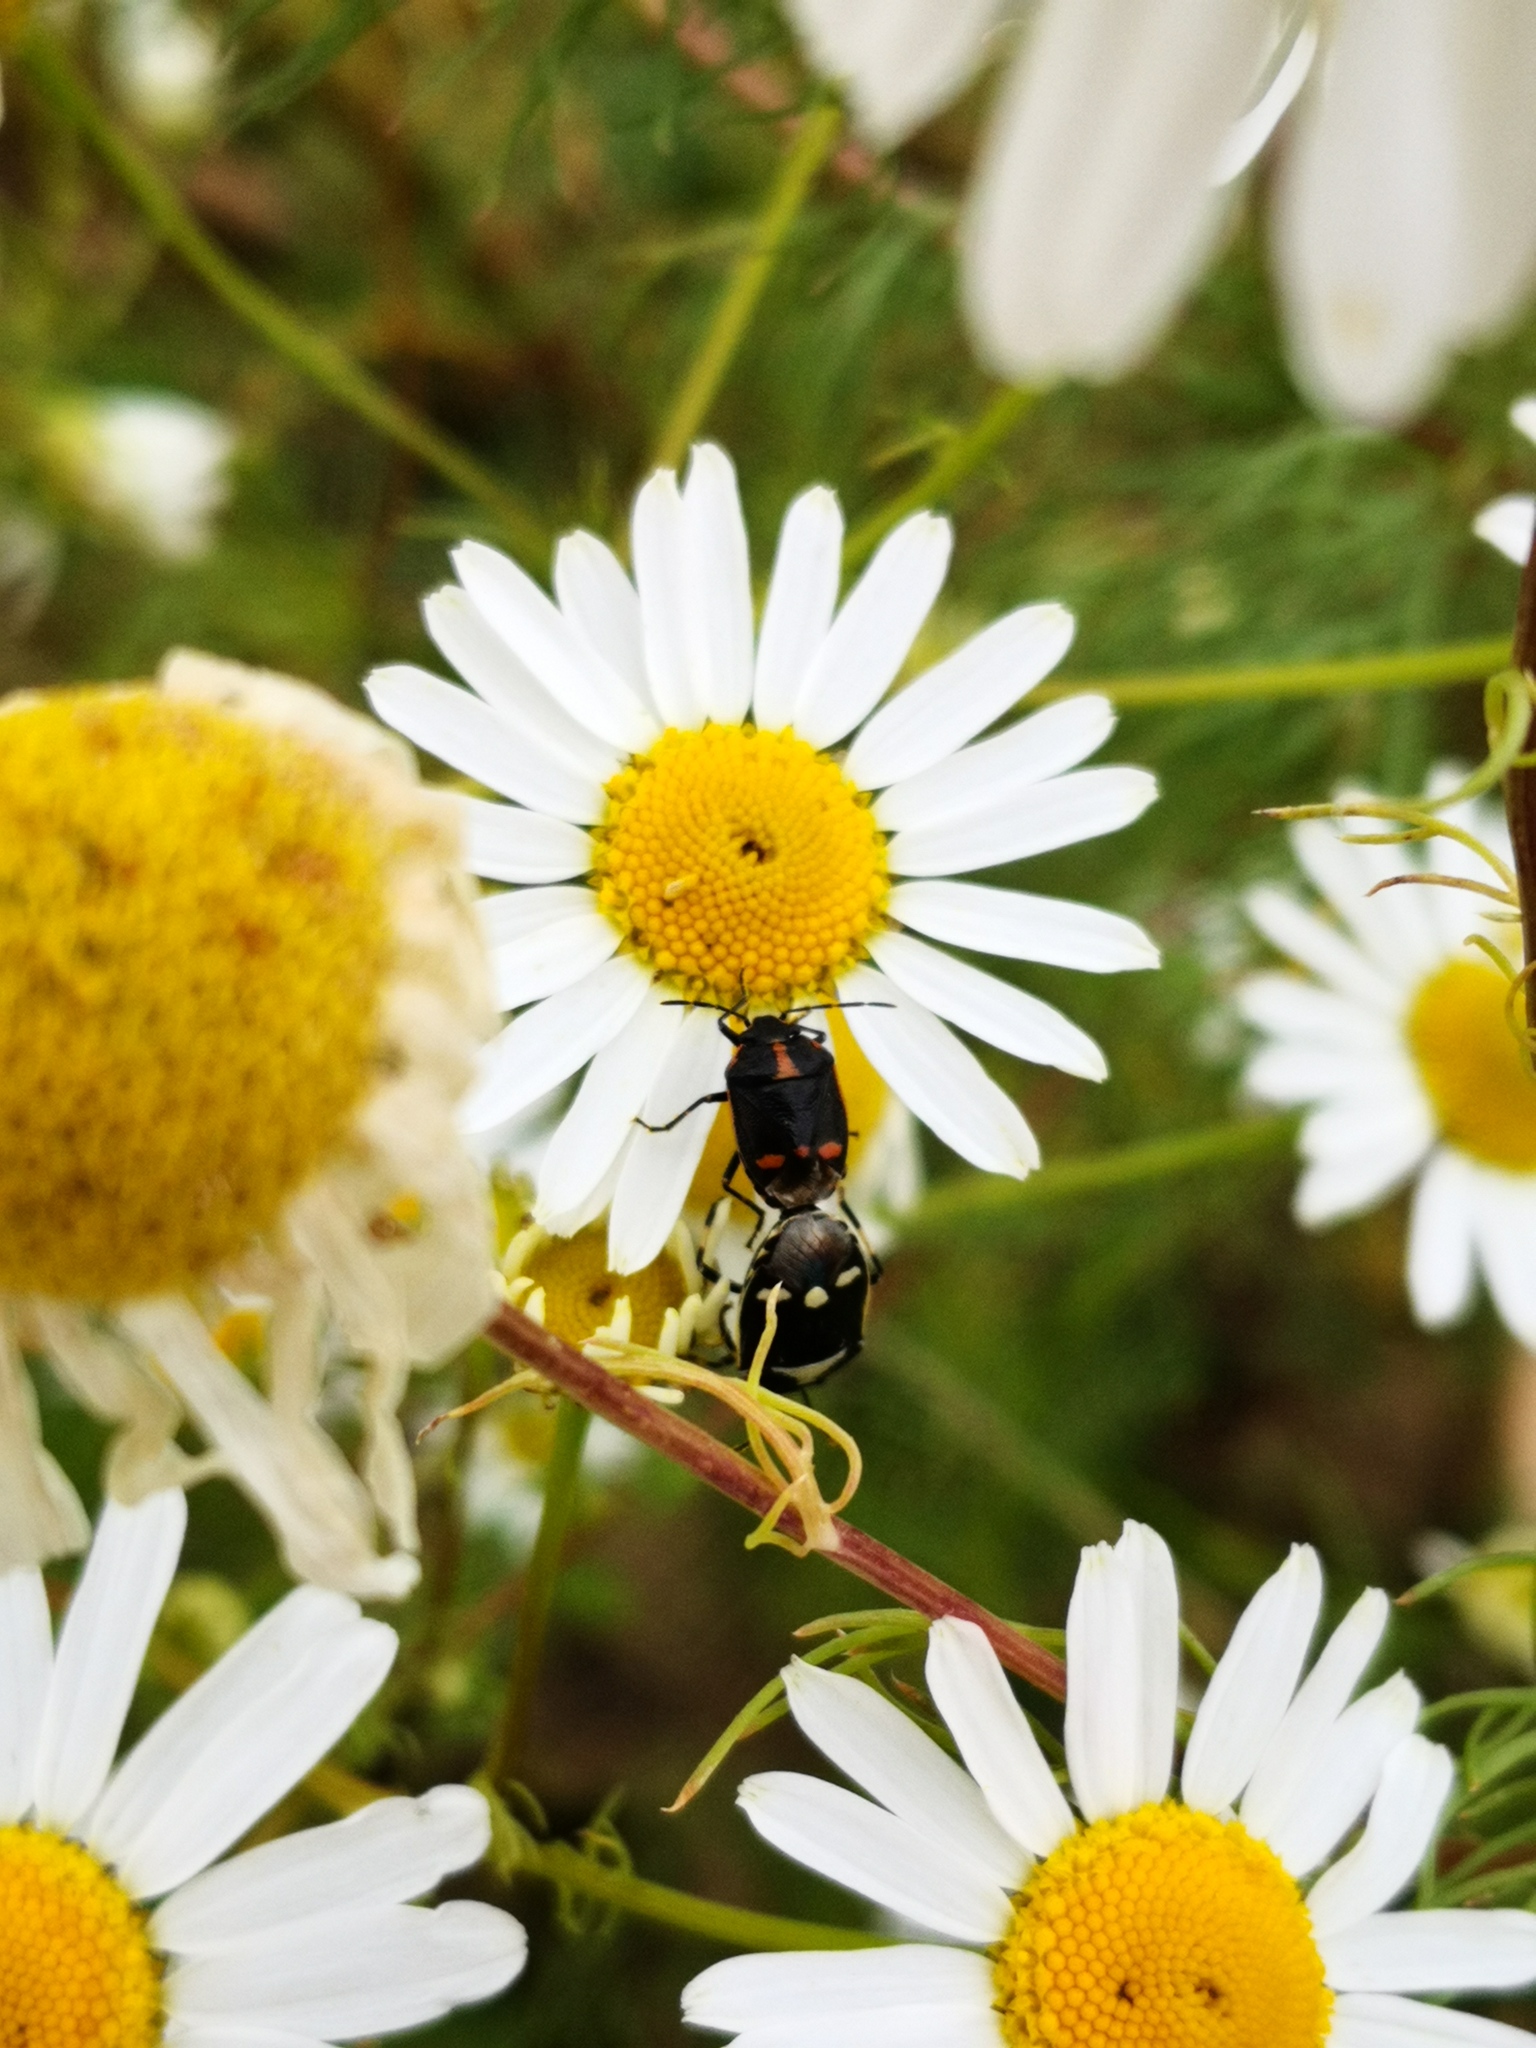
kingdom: Animalia
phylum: Arthropoda
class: Insecta
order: Hemiptera
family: Pentatomidae
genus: Eurydema
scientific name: Eurydema oleracea
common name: Cabbage bug
